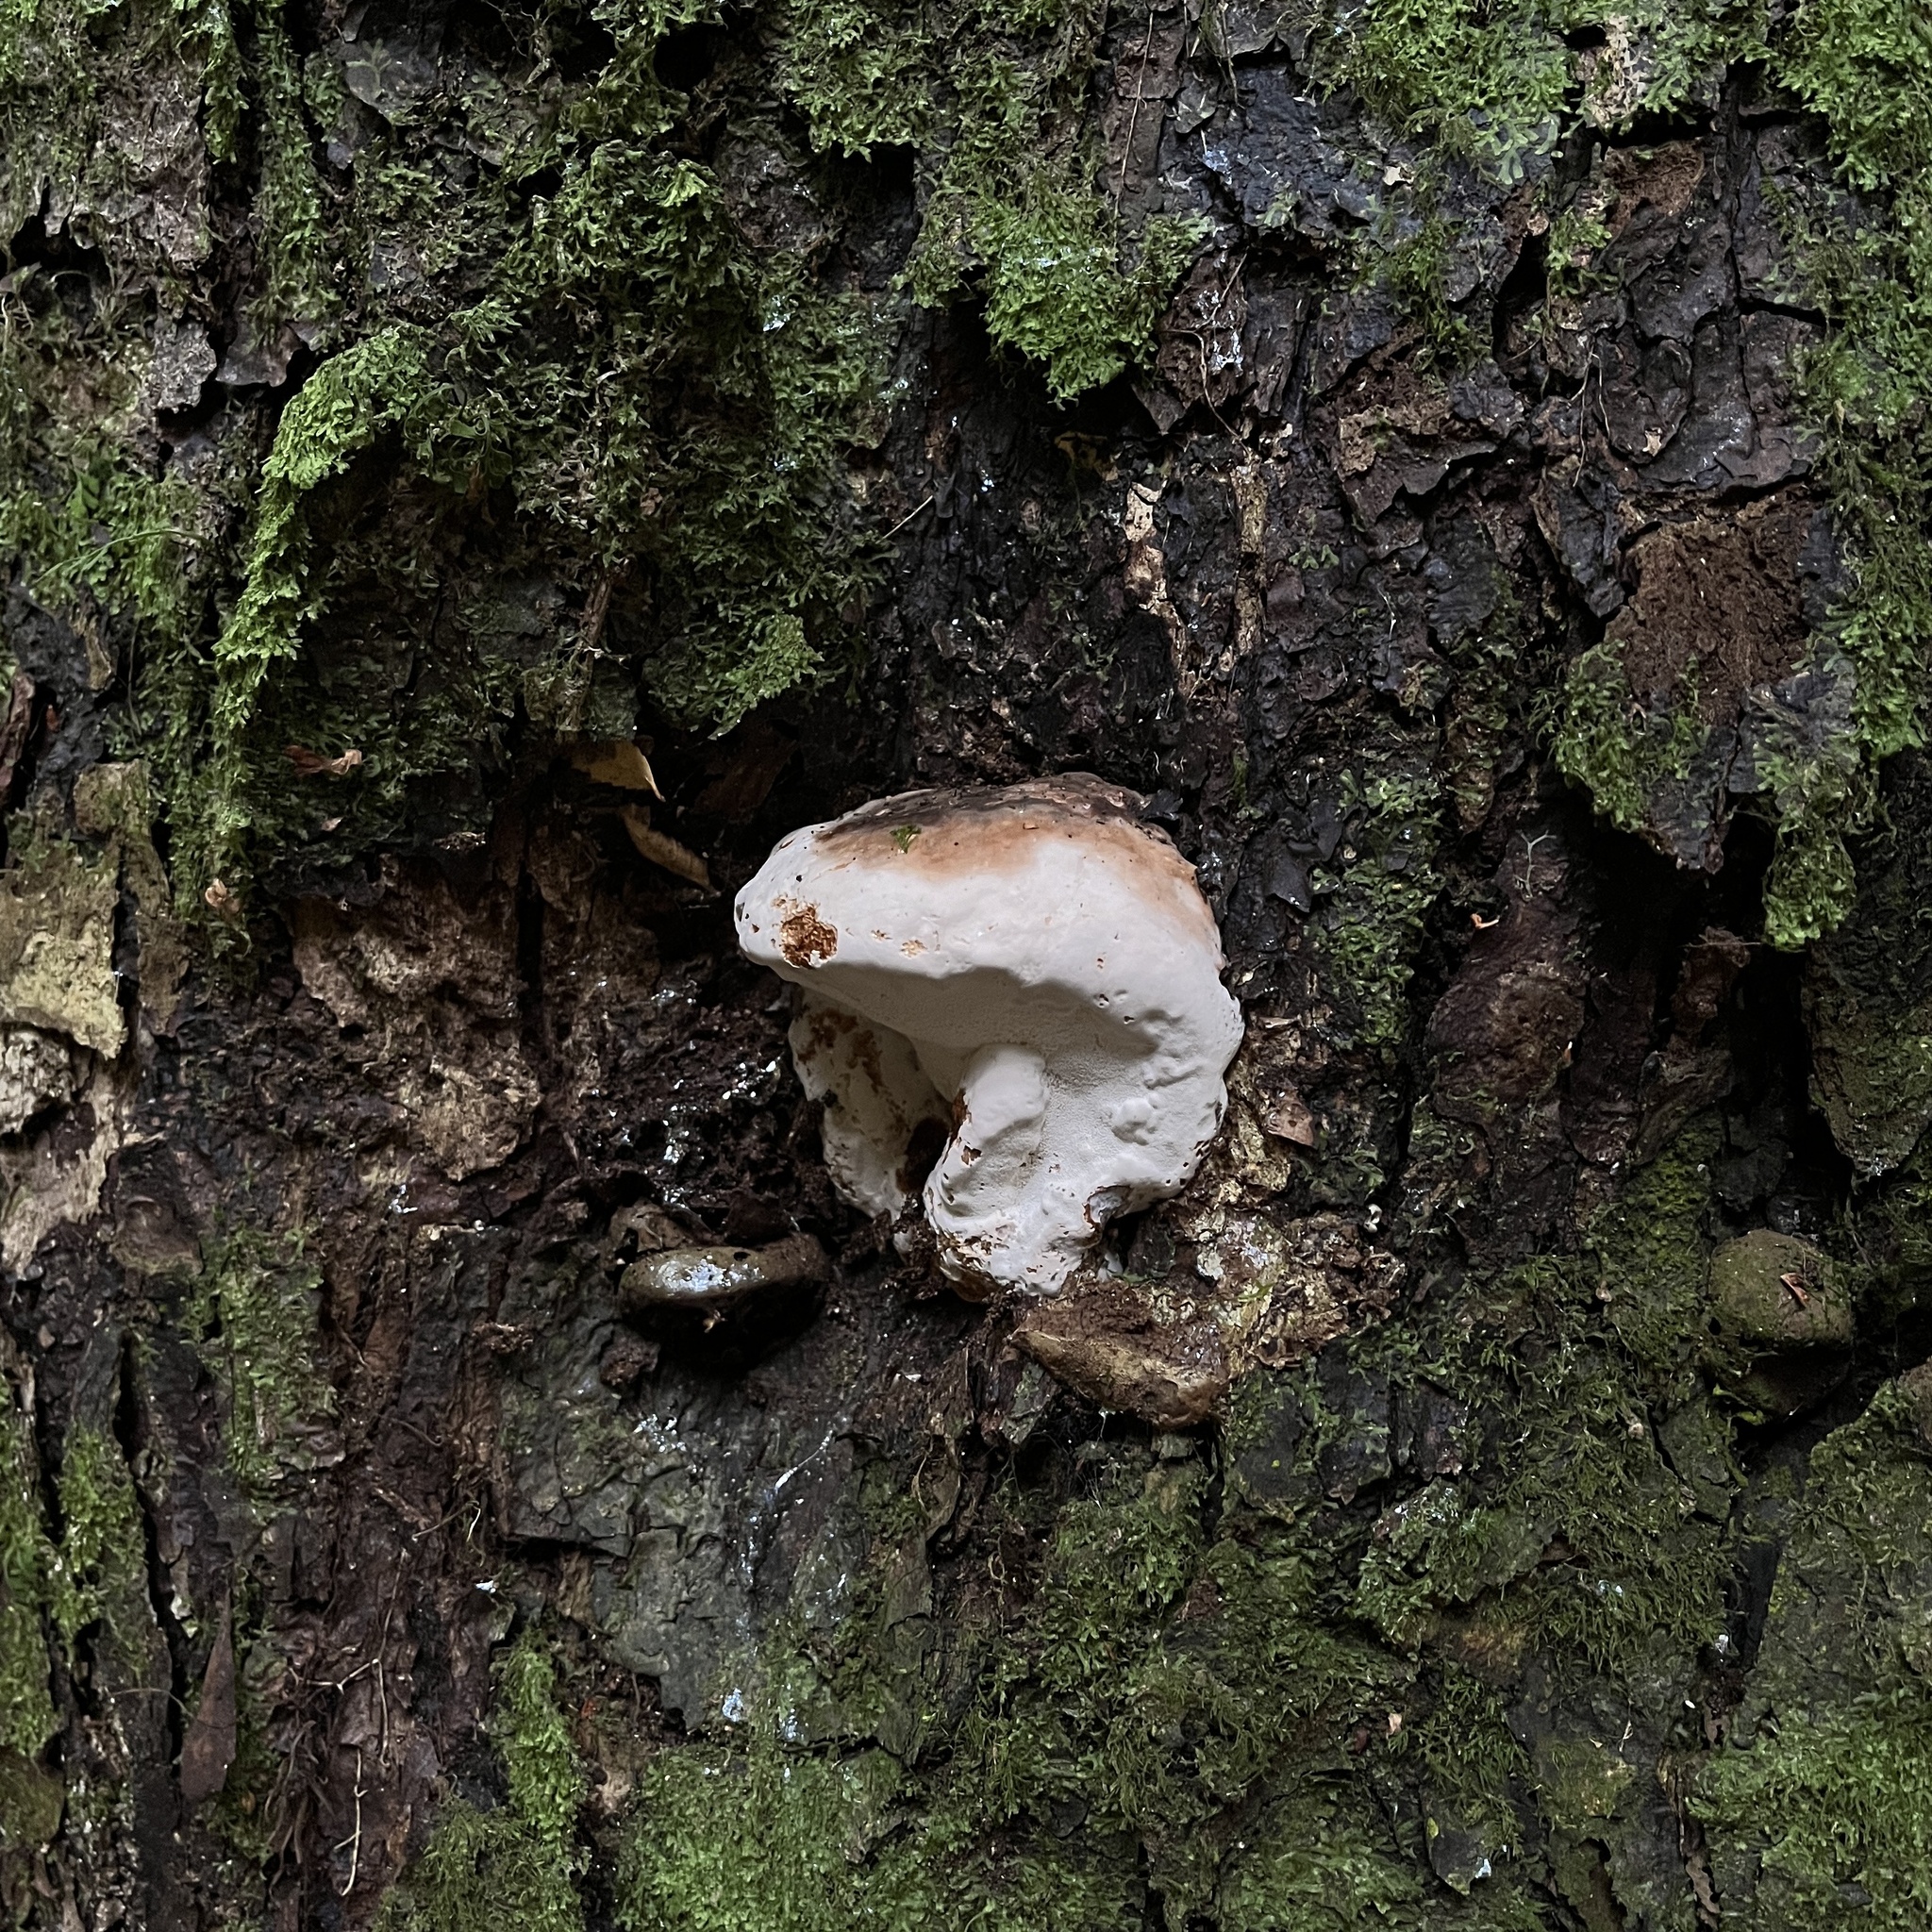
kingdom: Fungi
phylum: Basidiomycota
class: Agaricomycetes
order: Polyporales
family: Polyporaceae
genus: Ganoderma
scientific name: Ganoderma australe
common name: Southern bracket
